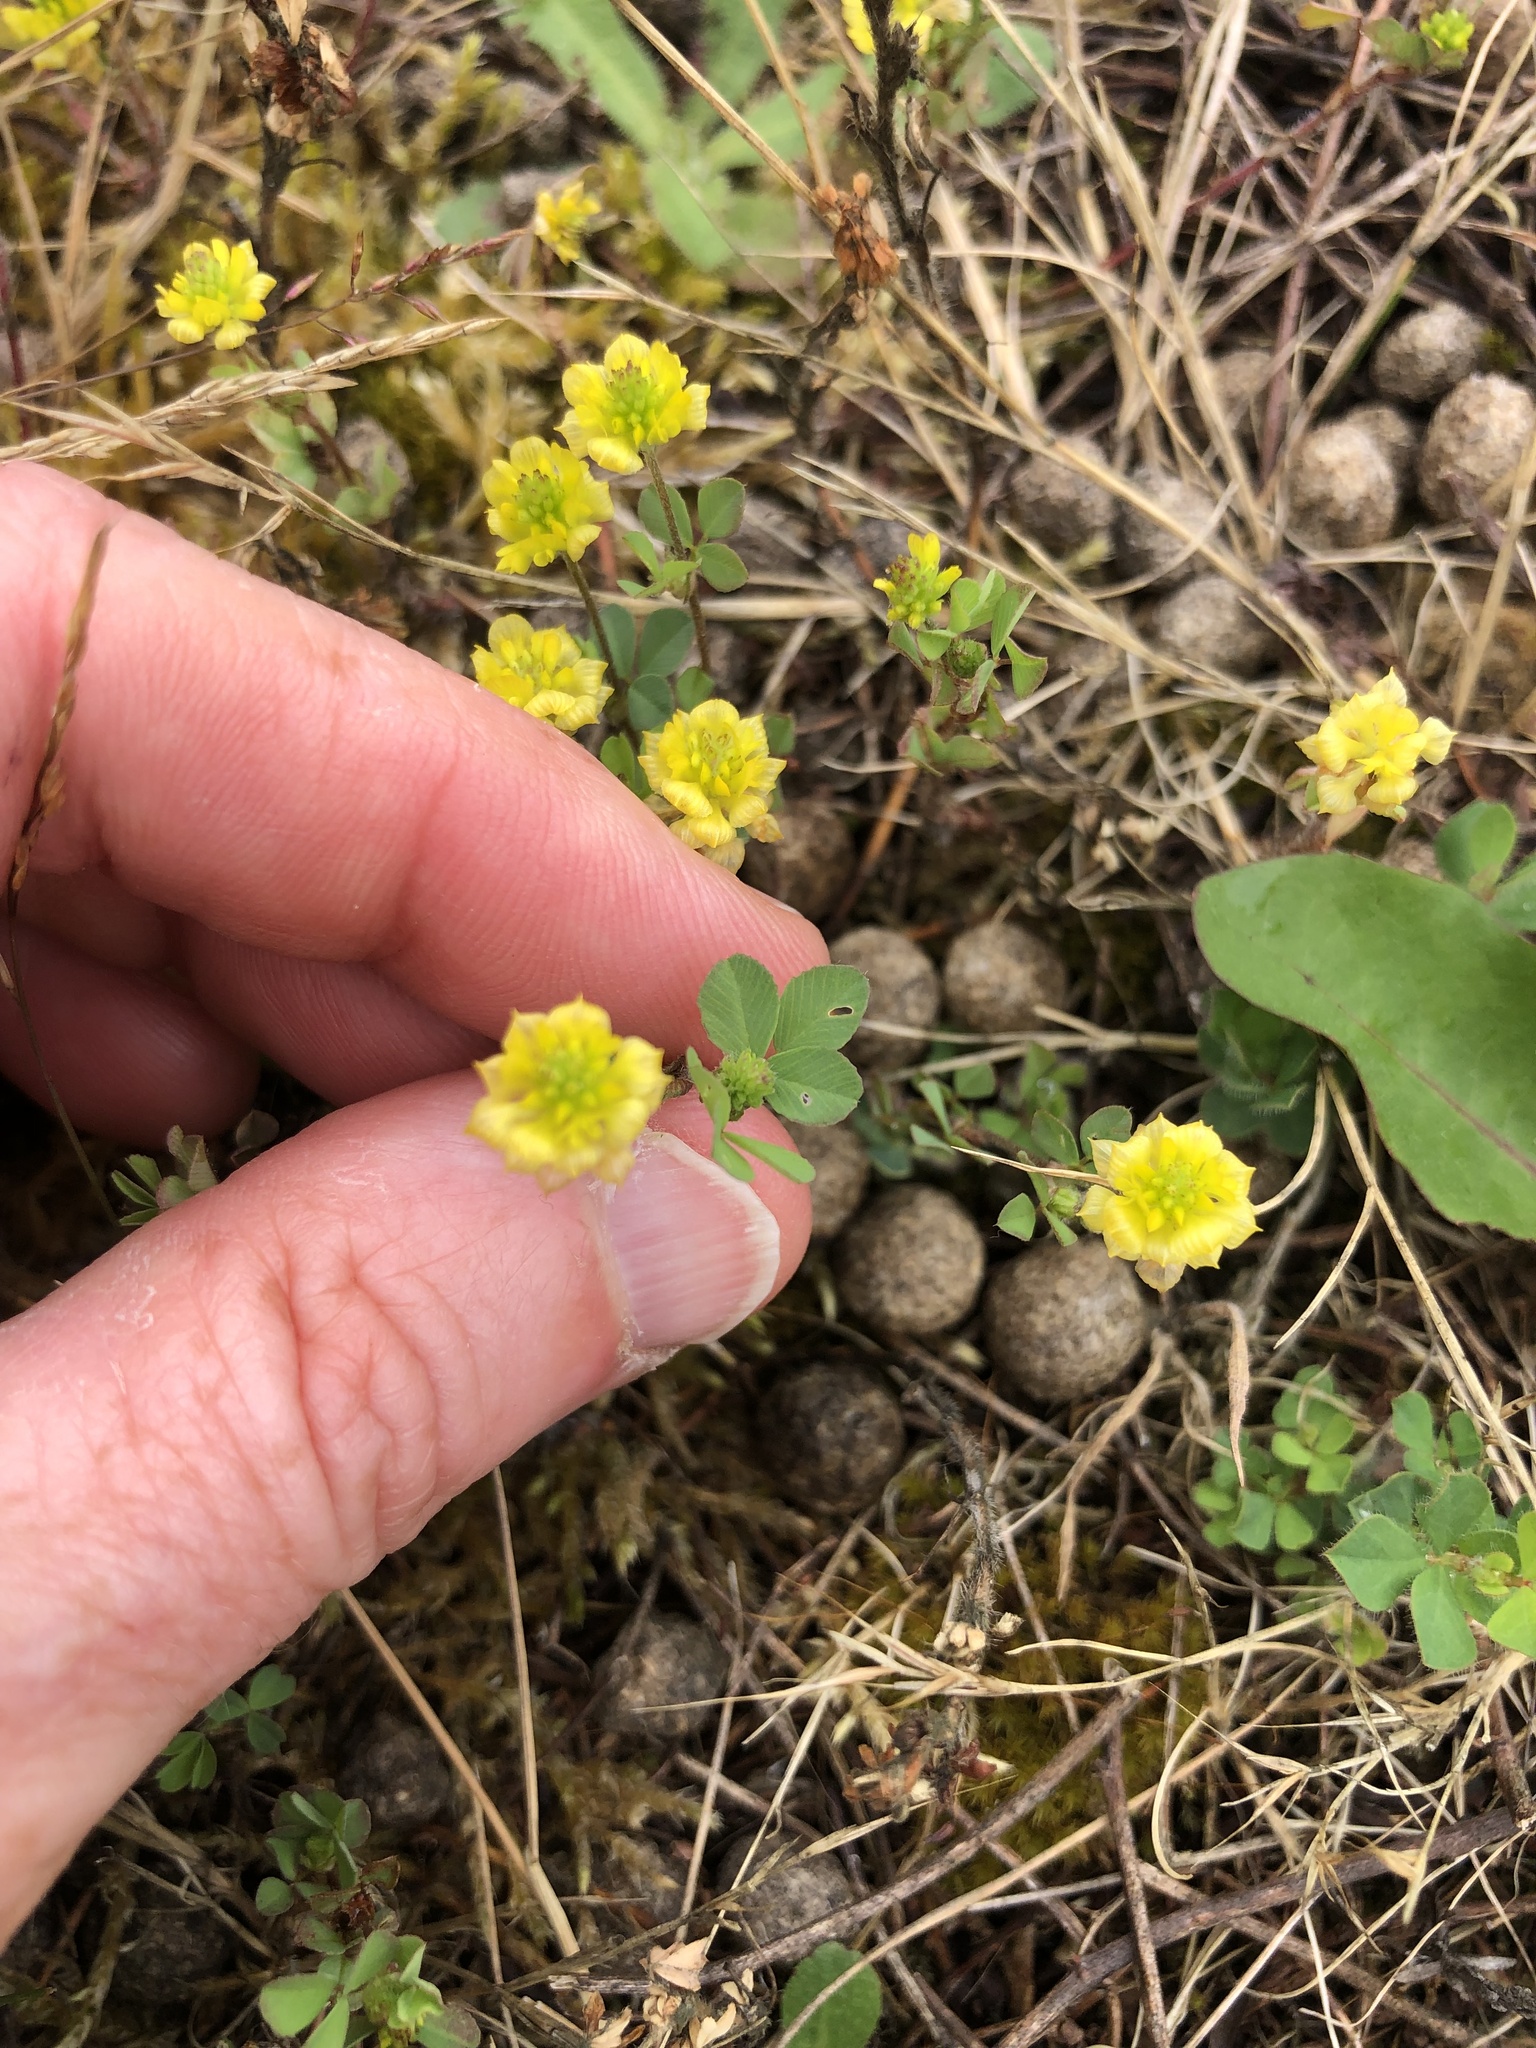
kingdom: Plantae
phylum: Tracheophyta
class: Magnoliopsida
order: Fabales
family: Fabaceae
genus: Trifolium
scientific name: Trifolium campestre
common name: Field clover
